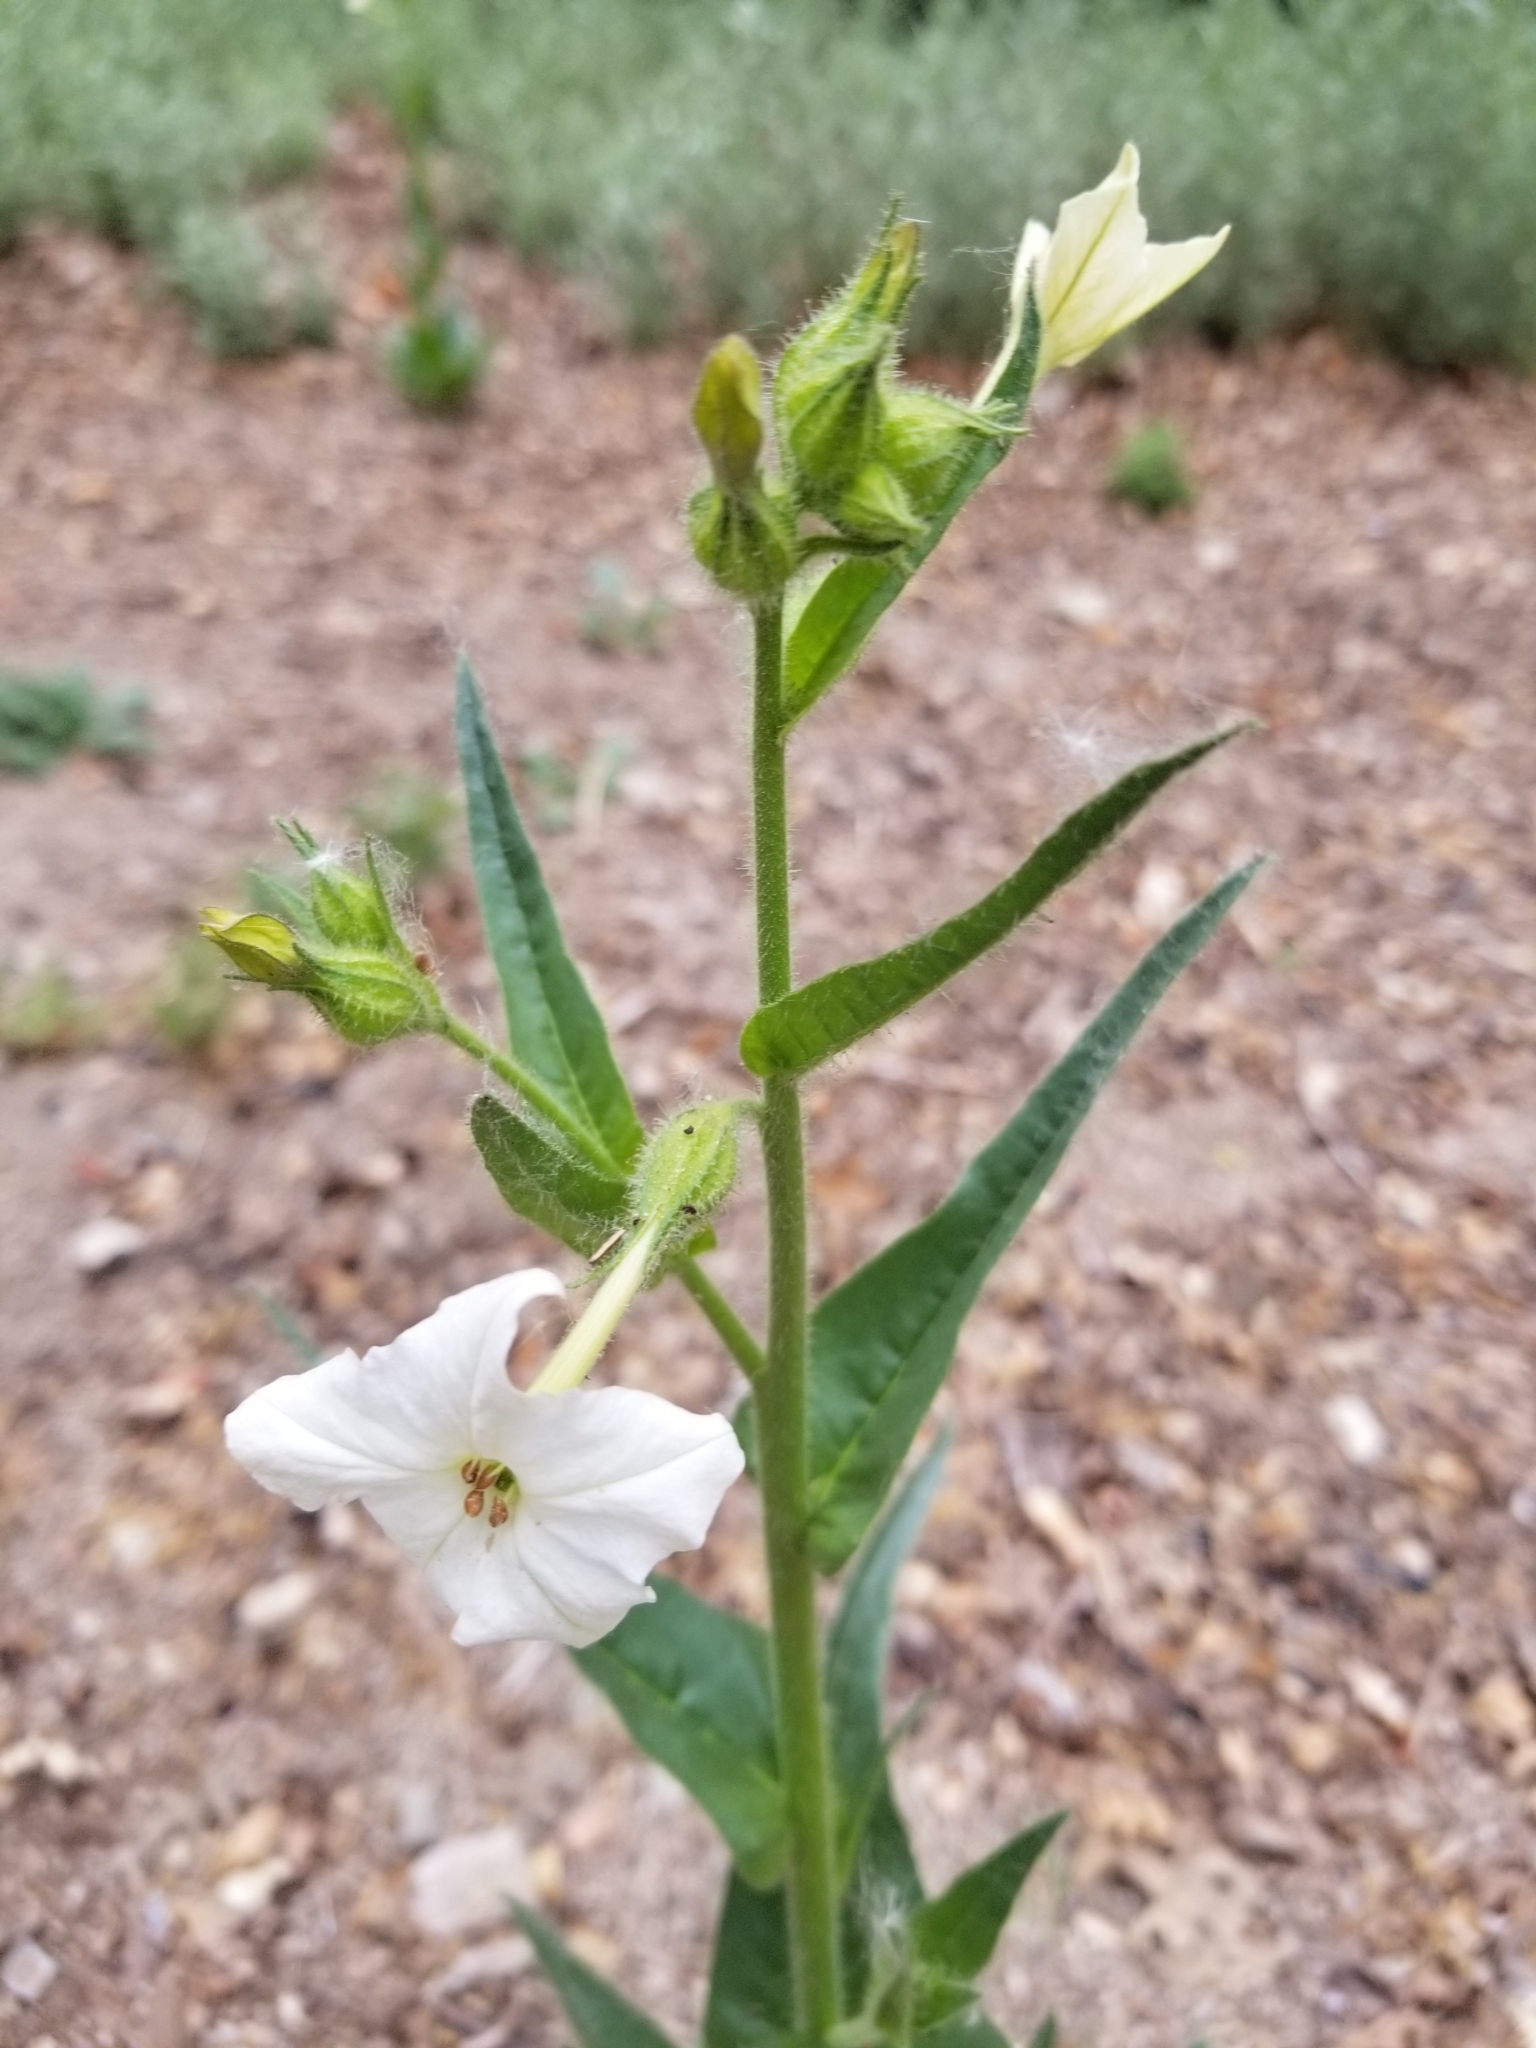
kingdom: Plantae
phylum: Tracheophyta
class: Magnoliopsida
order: Solanales
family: Solanaceae
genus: Nicotiana
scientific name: Nicotiana quadrivalvis
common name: Indian tobacco
